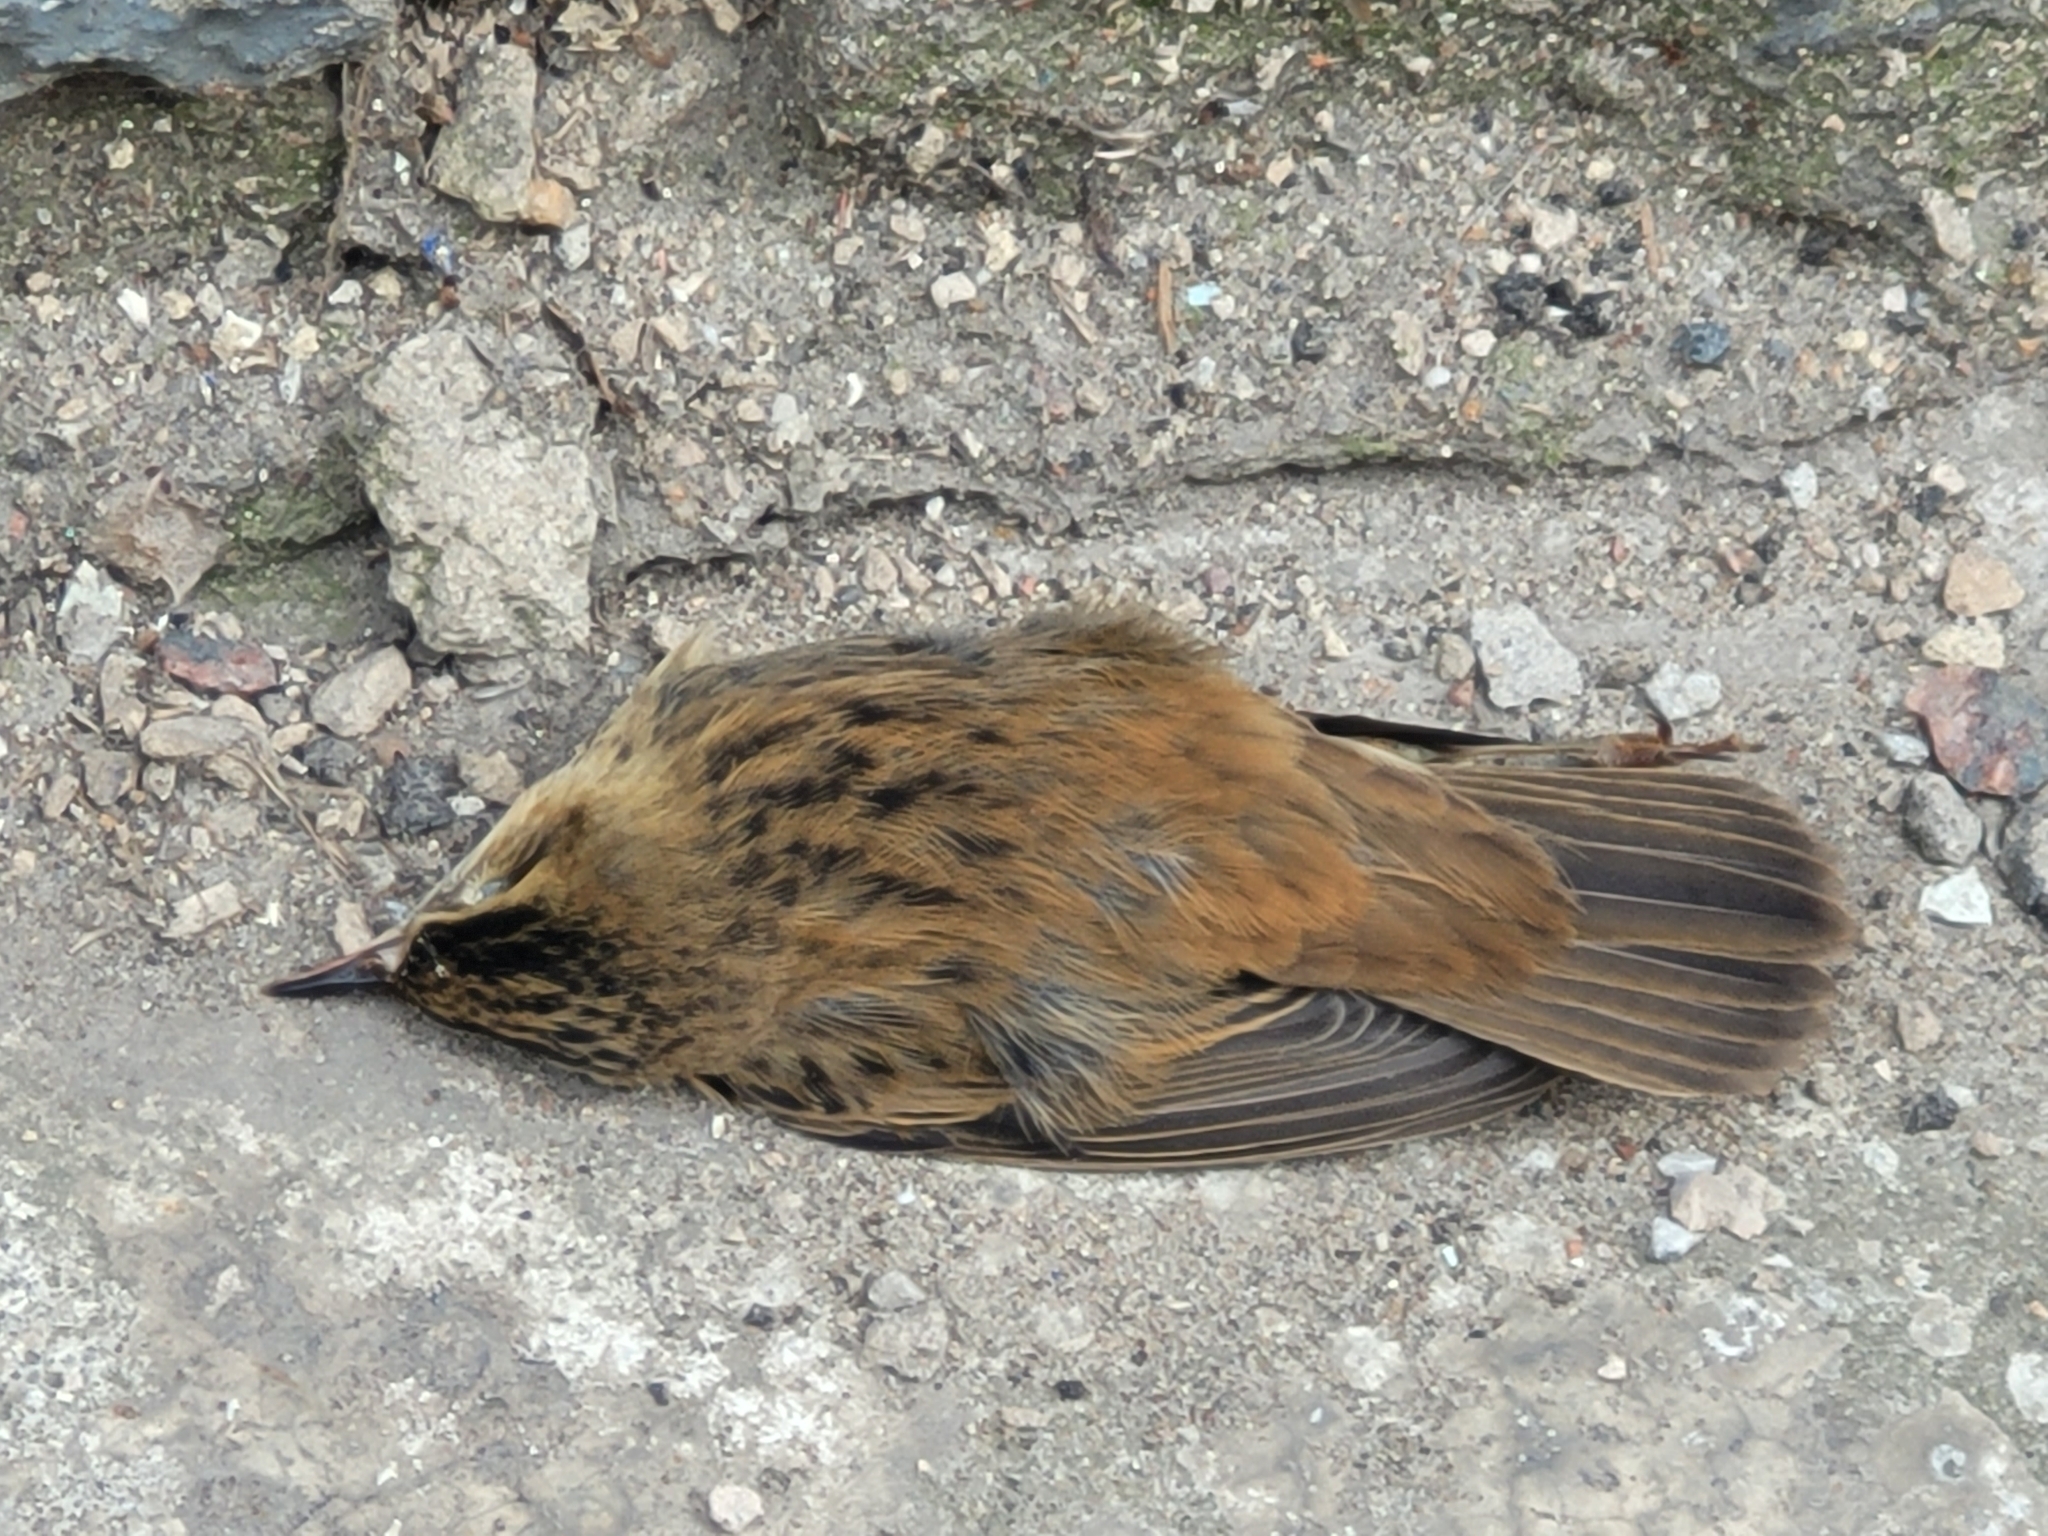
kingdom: Animalia
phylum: Chordata
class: Aves
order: Passeriformes
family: Acrocephalidae
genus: Acrocephalus
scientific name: Acrocephalus schoenobaenus
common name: Sedge warbler
